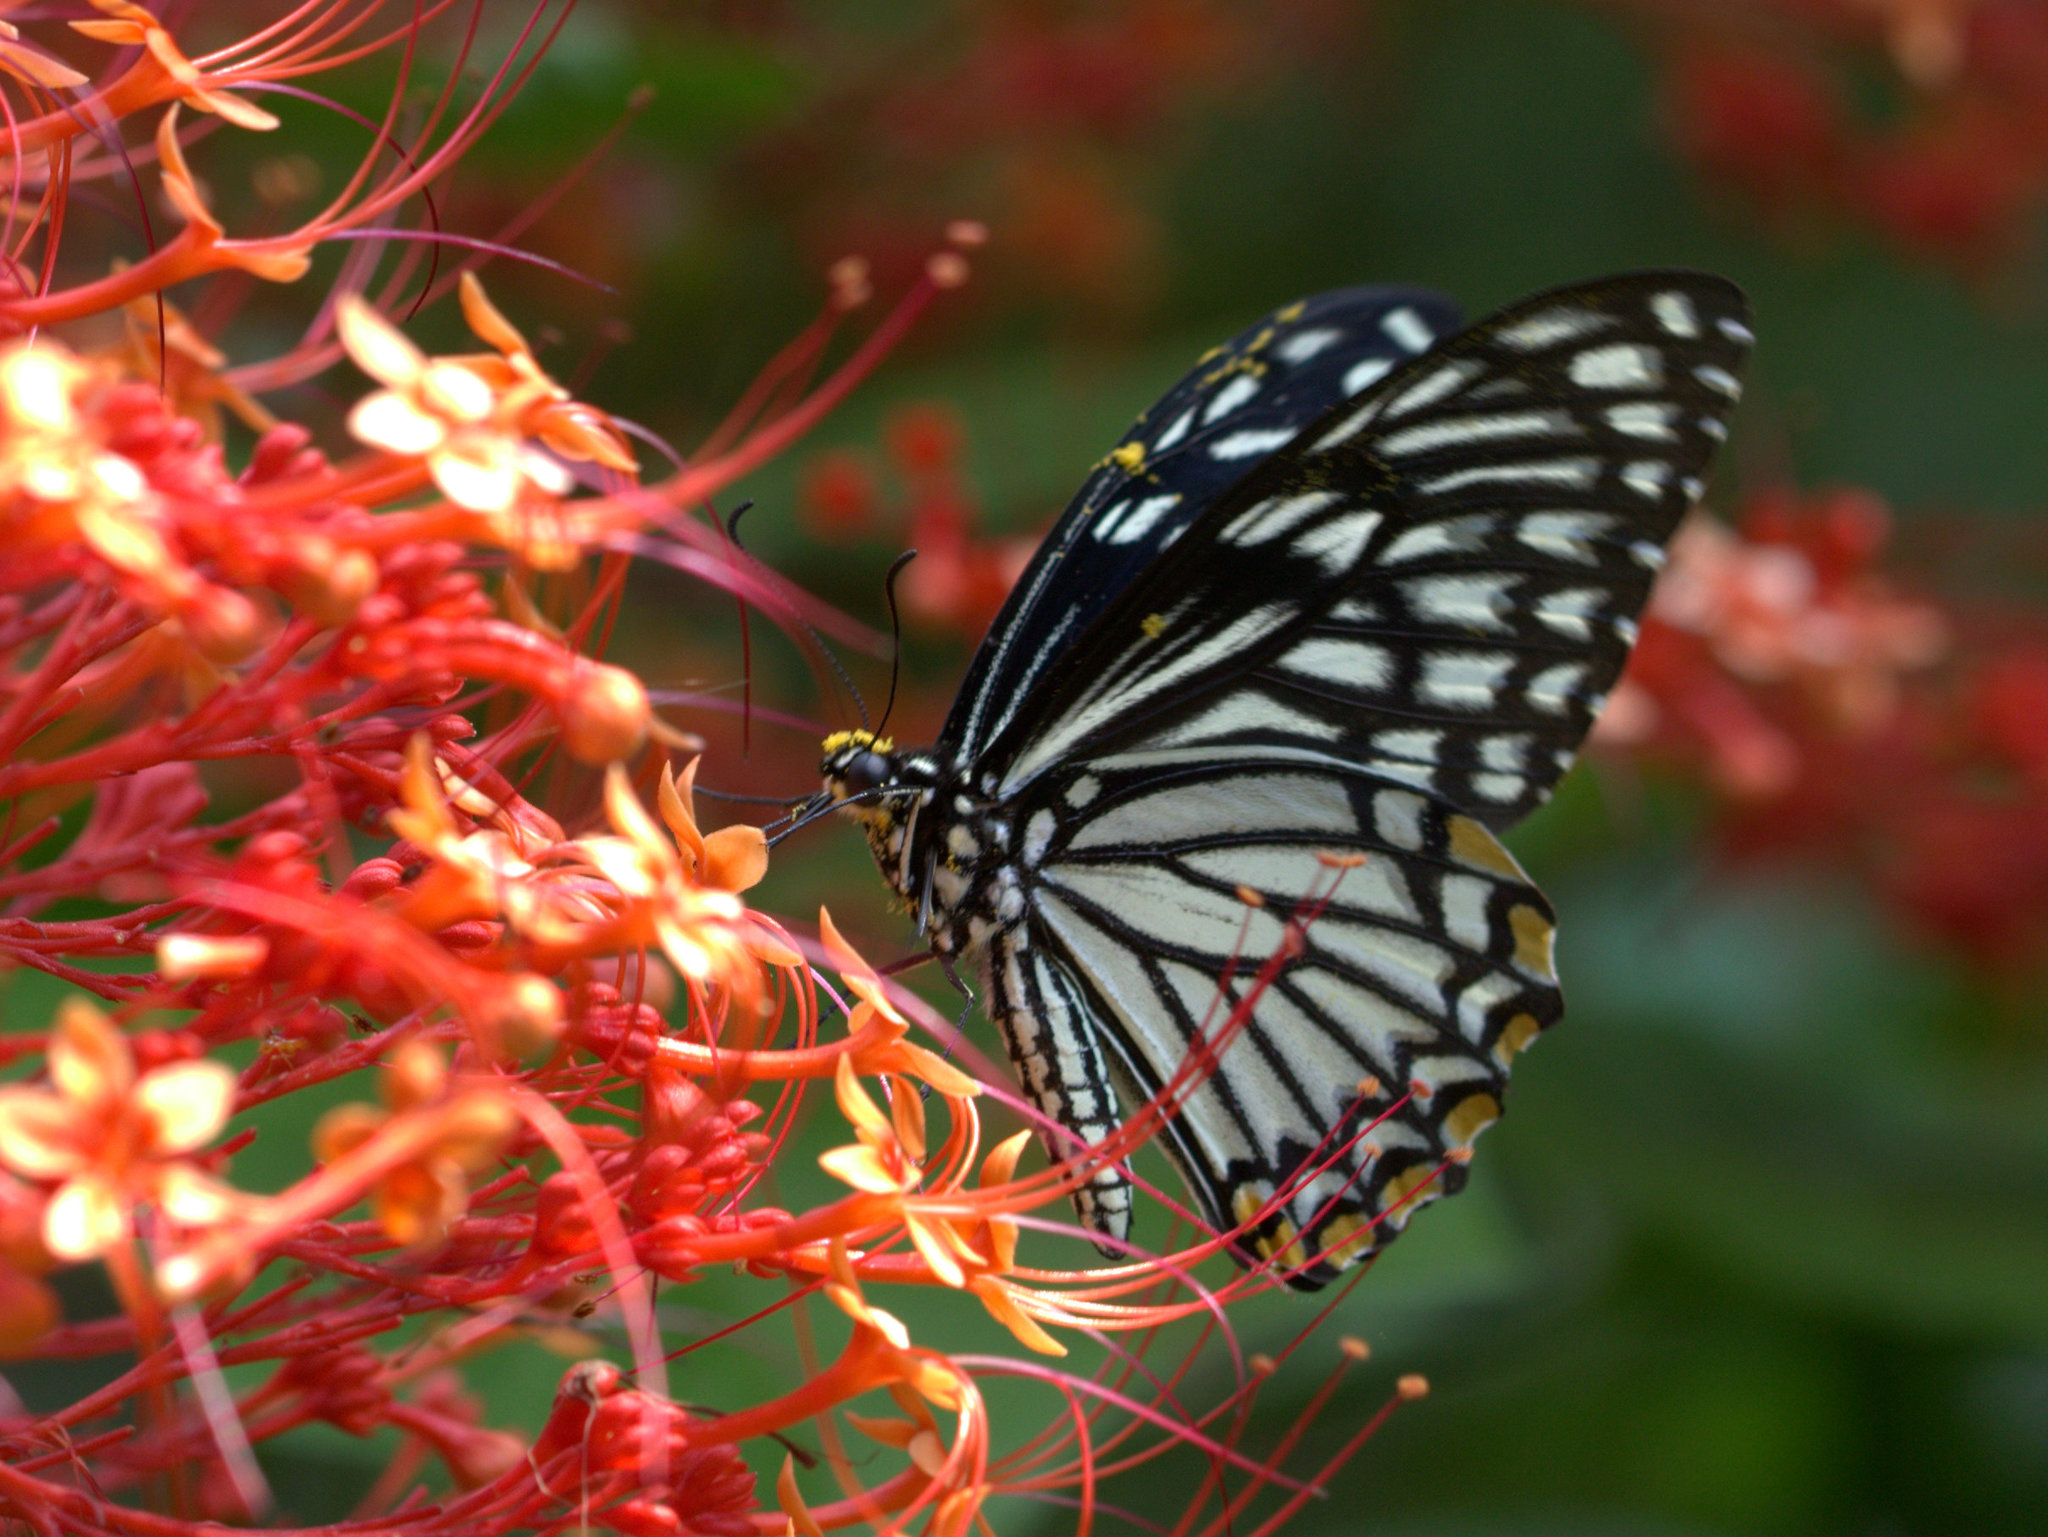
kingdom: Animalia
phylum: Arthropoda
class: Insecta
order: Lepidoptera
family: Papilionidae
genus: Chilasa
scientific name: Chilasa clytia
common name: Common mime
